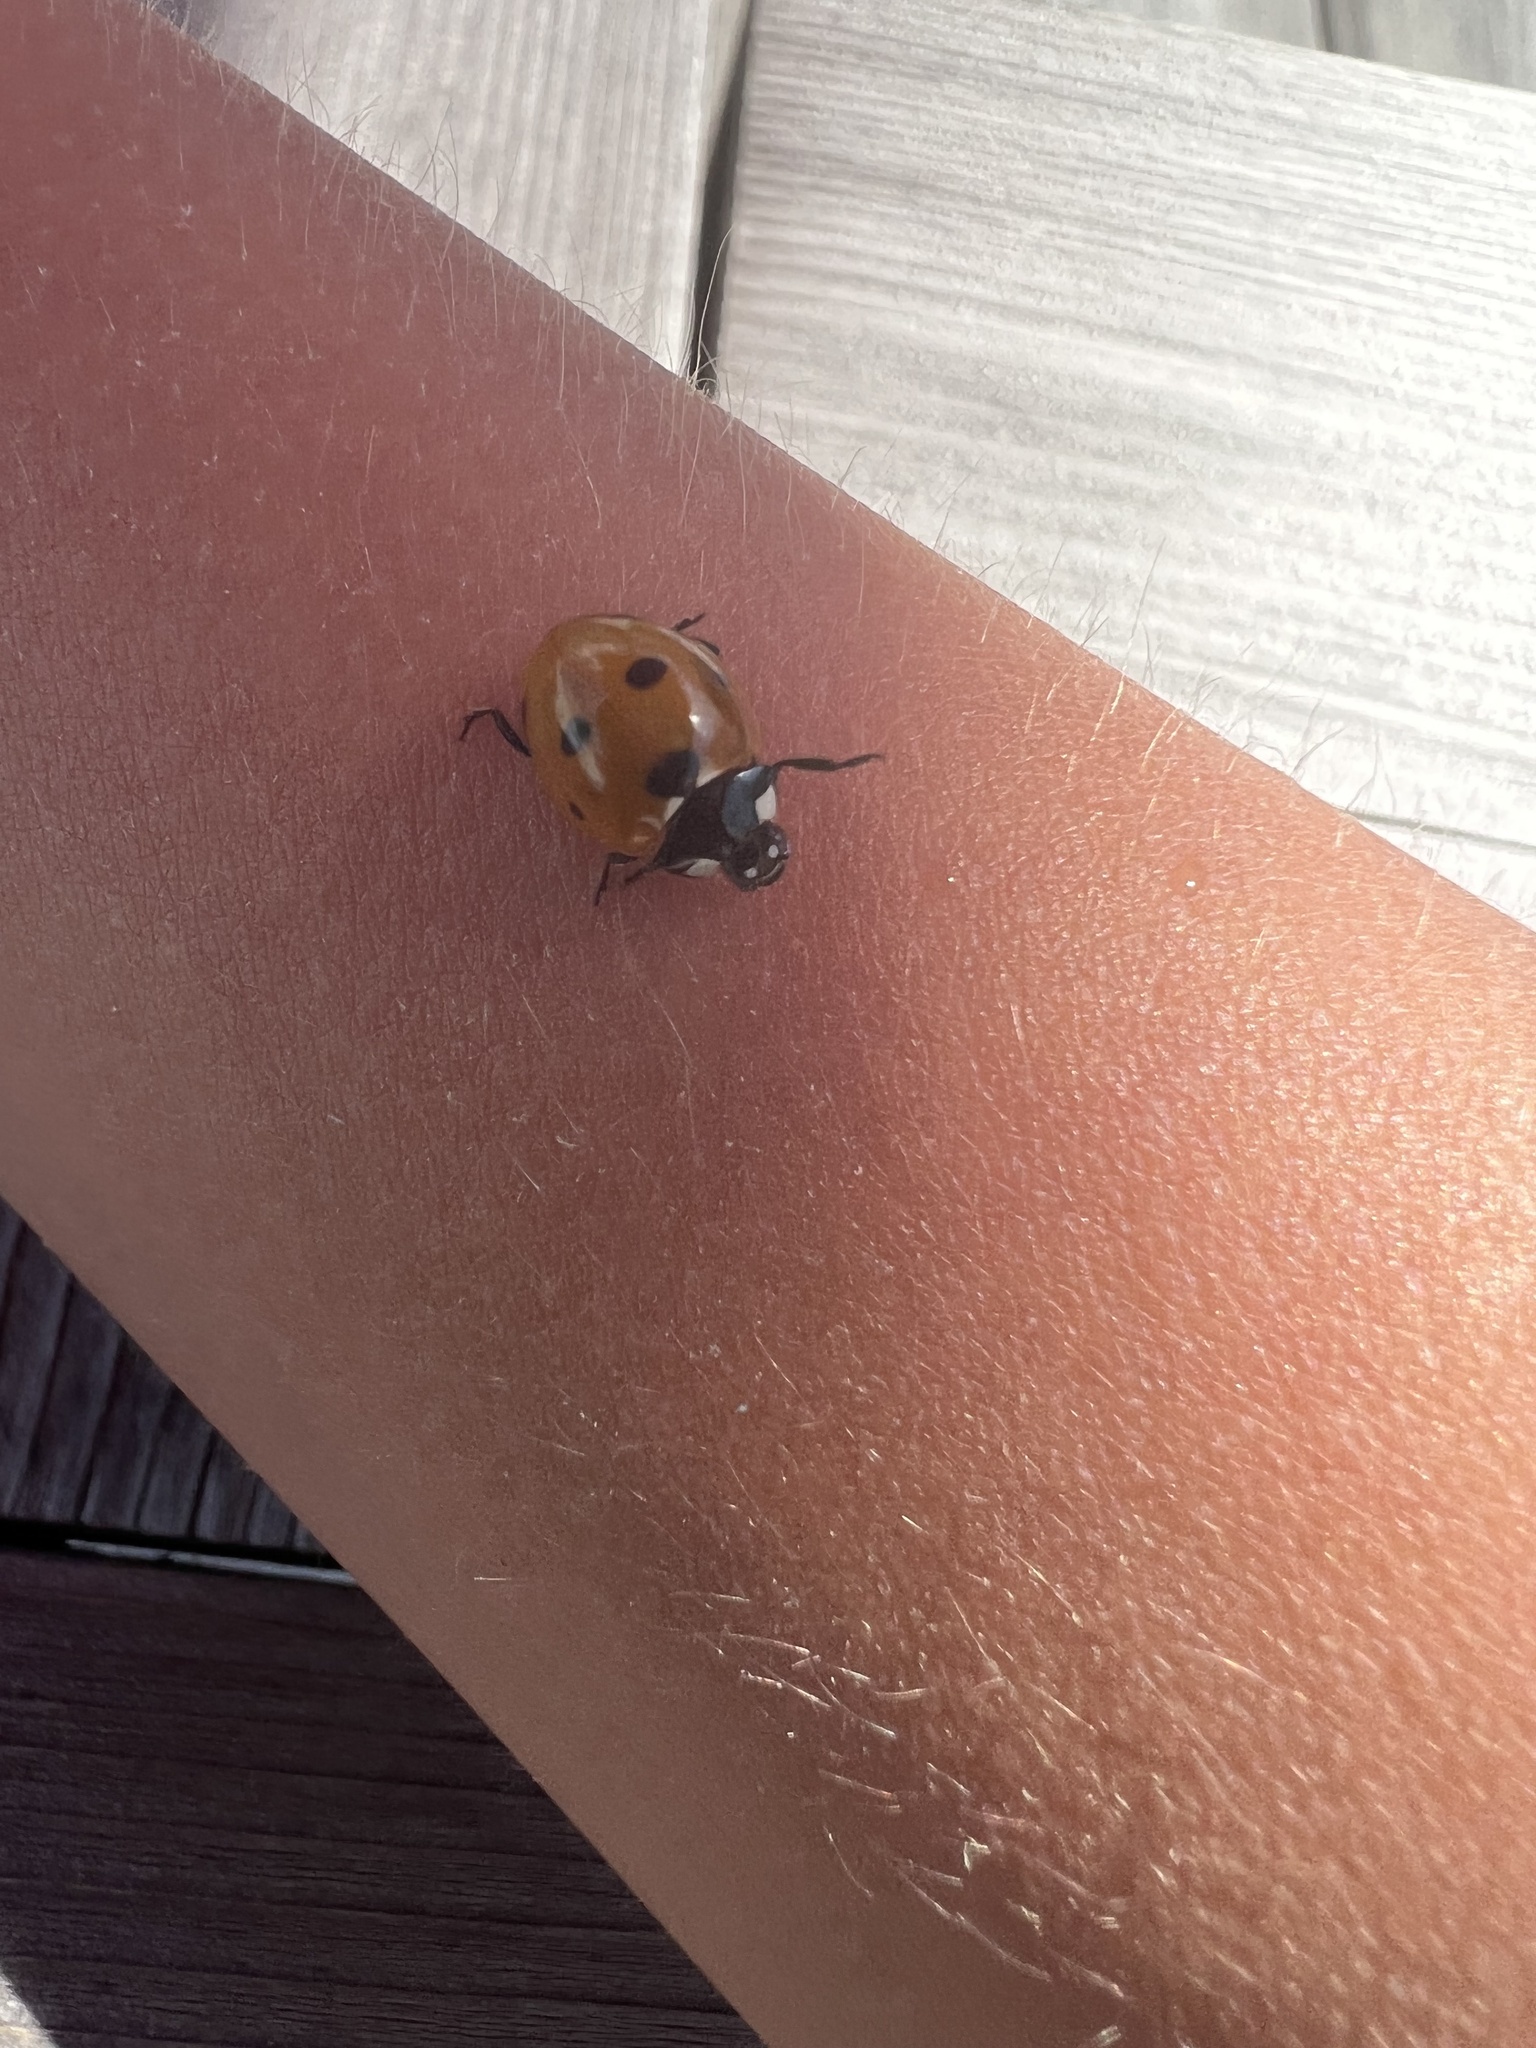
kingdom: Animalia
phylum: Arthropoda
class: Insecta
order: Coleoptera
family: Coccinellidae
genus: Coccinella
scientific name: Coccinella septempunctata
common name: Sevenspotted lady beetle
